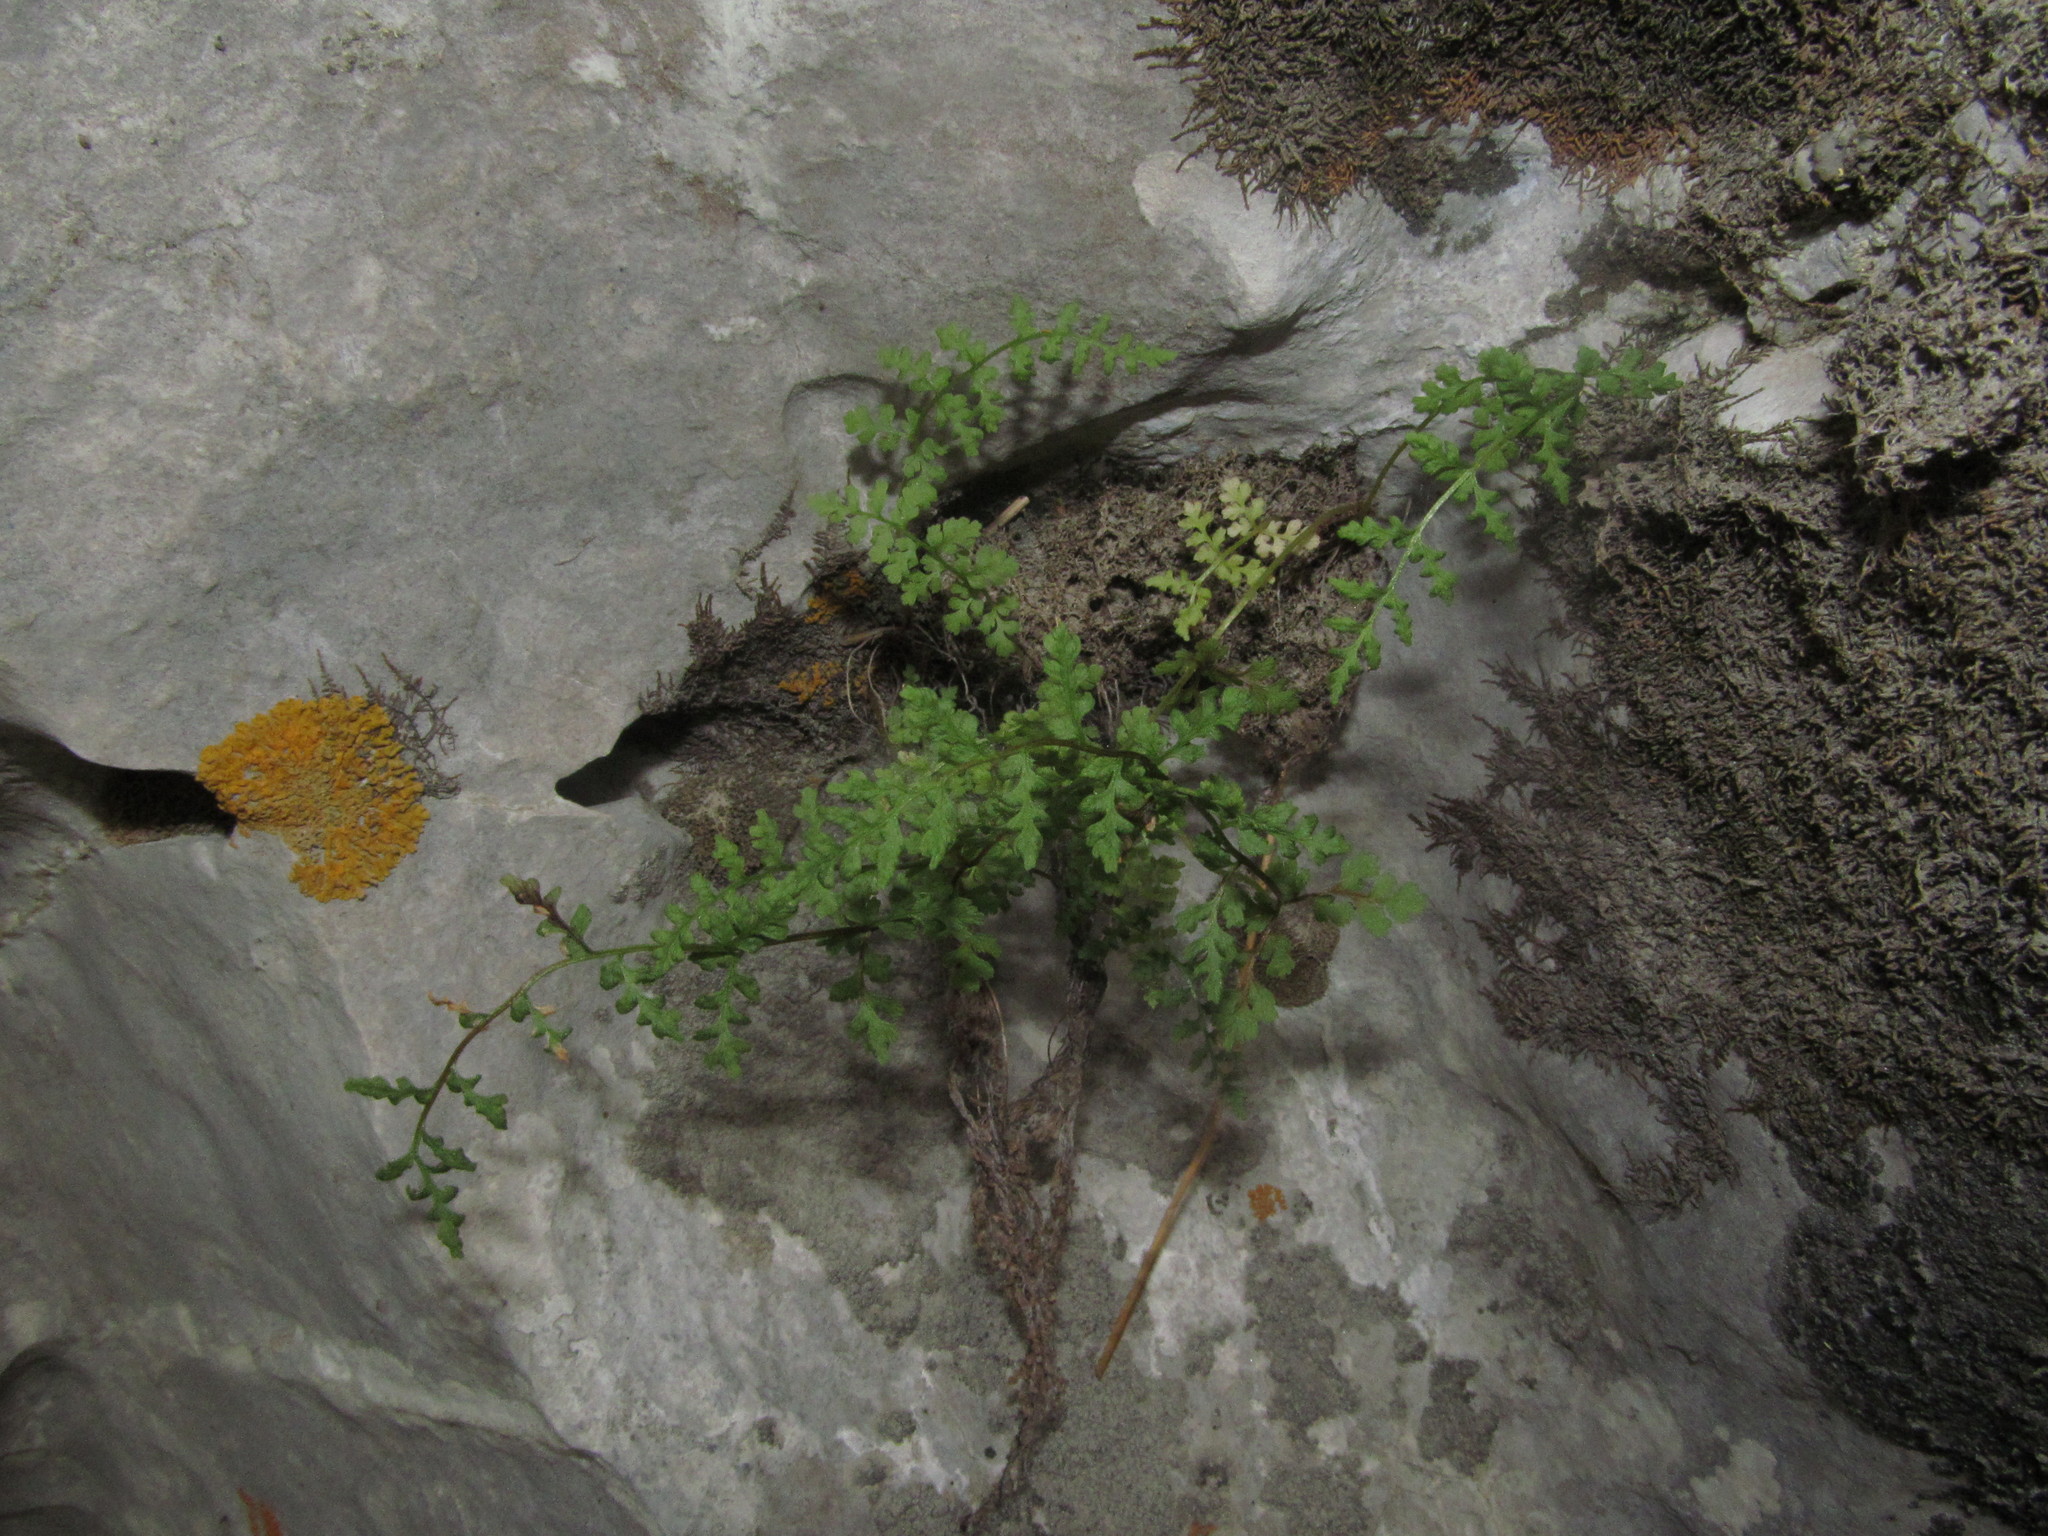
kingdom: Plantae
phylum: Tracheophyta
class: Polypodiopsida
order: Polypodiales
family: Cystopteridaceae
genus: Cystopteris
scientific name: Cystopteris fragilis
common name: Brittle bladder fern
